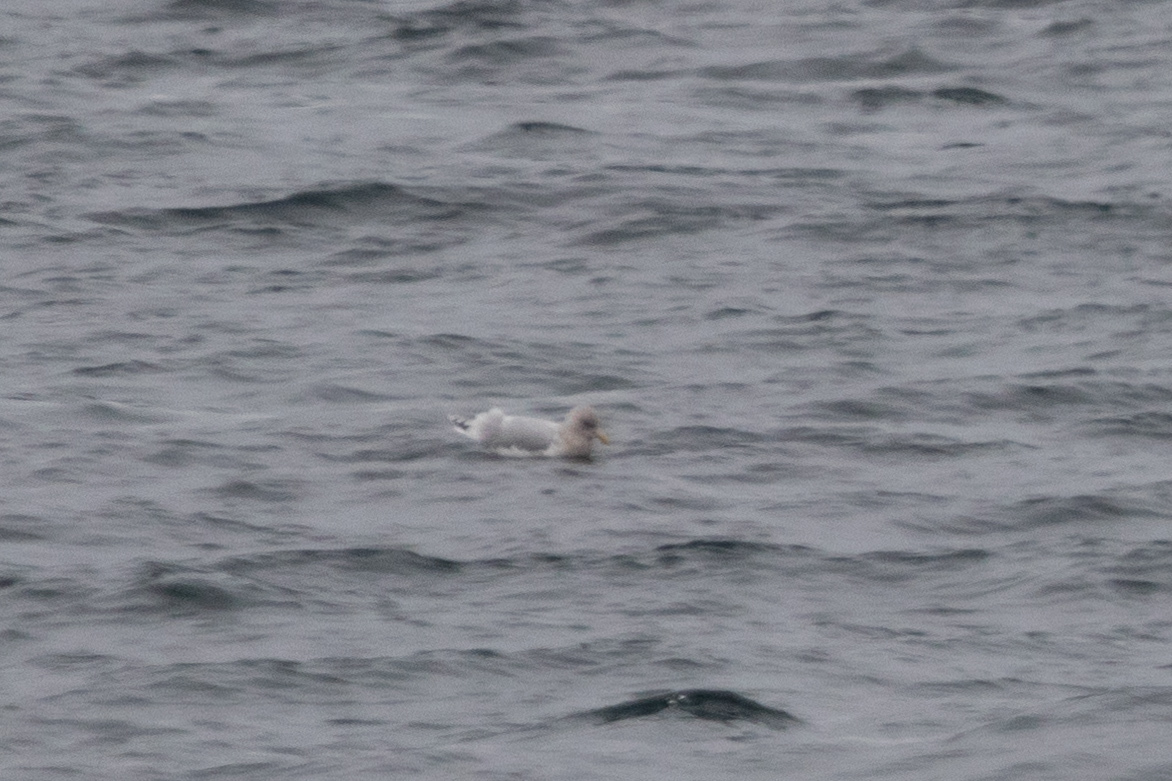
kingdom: Animalia
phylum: Chordata
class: Aves
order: Charadriiformes
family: Laridae
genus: Larus
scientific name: Larus glaucoides
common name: Iceland gull
